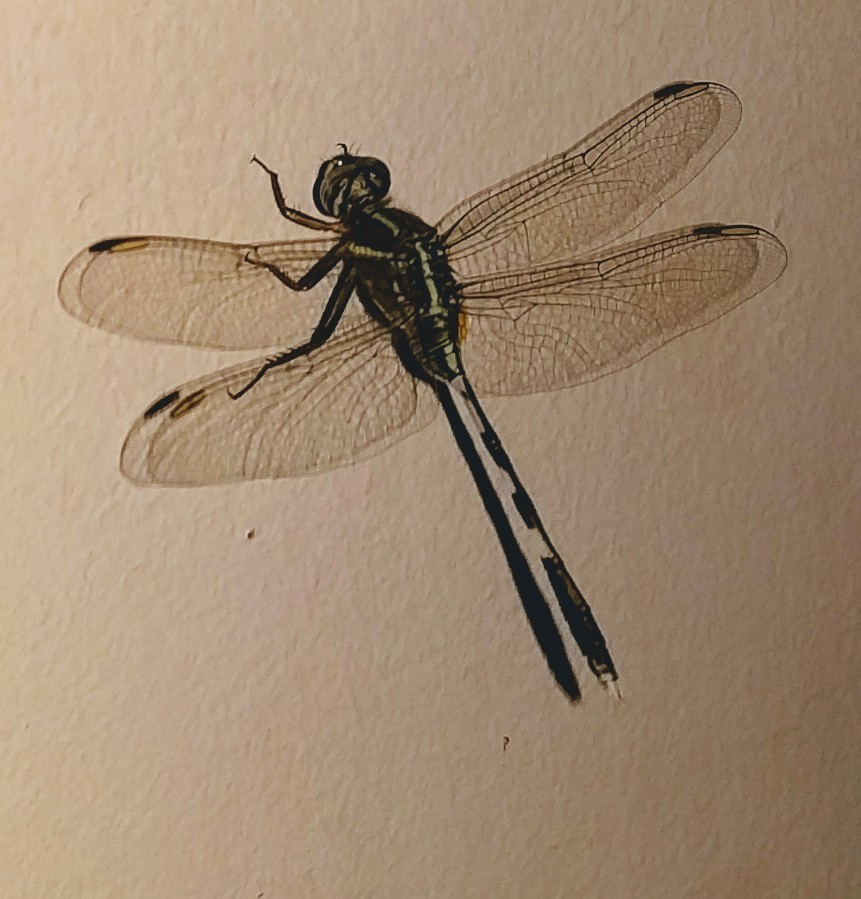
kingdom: Animalia
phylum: Arthropoda
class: Insecta
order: Odonata
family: Libellulidae
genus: Orthetrum
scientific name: Orthetrum sabina
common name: Slender skimmer
